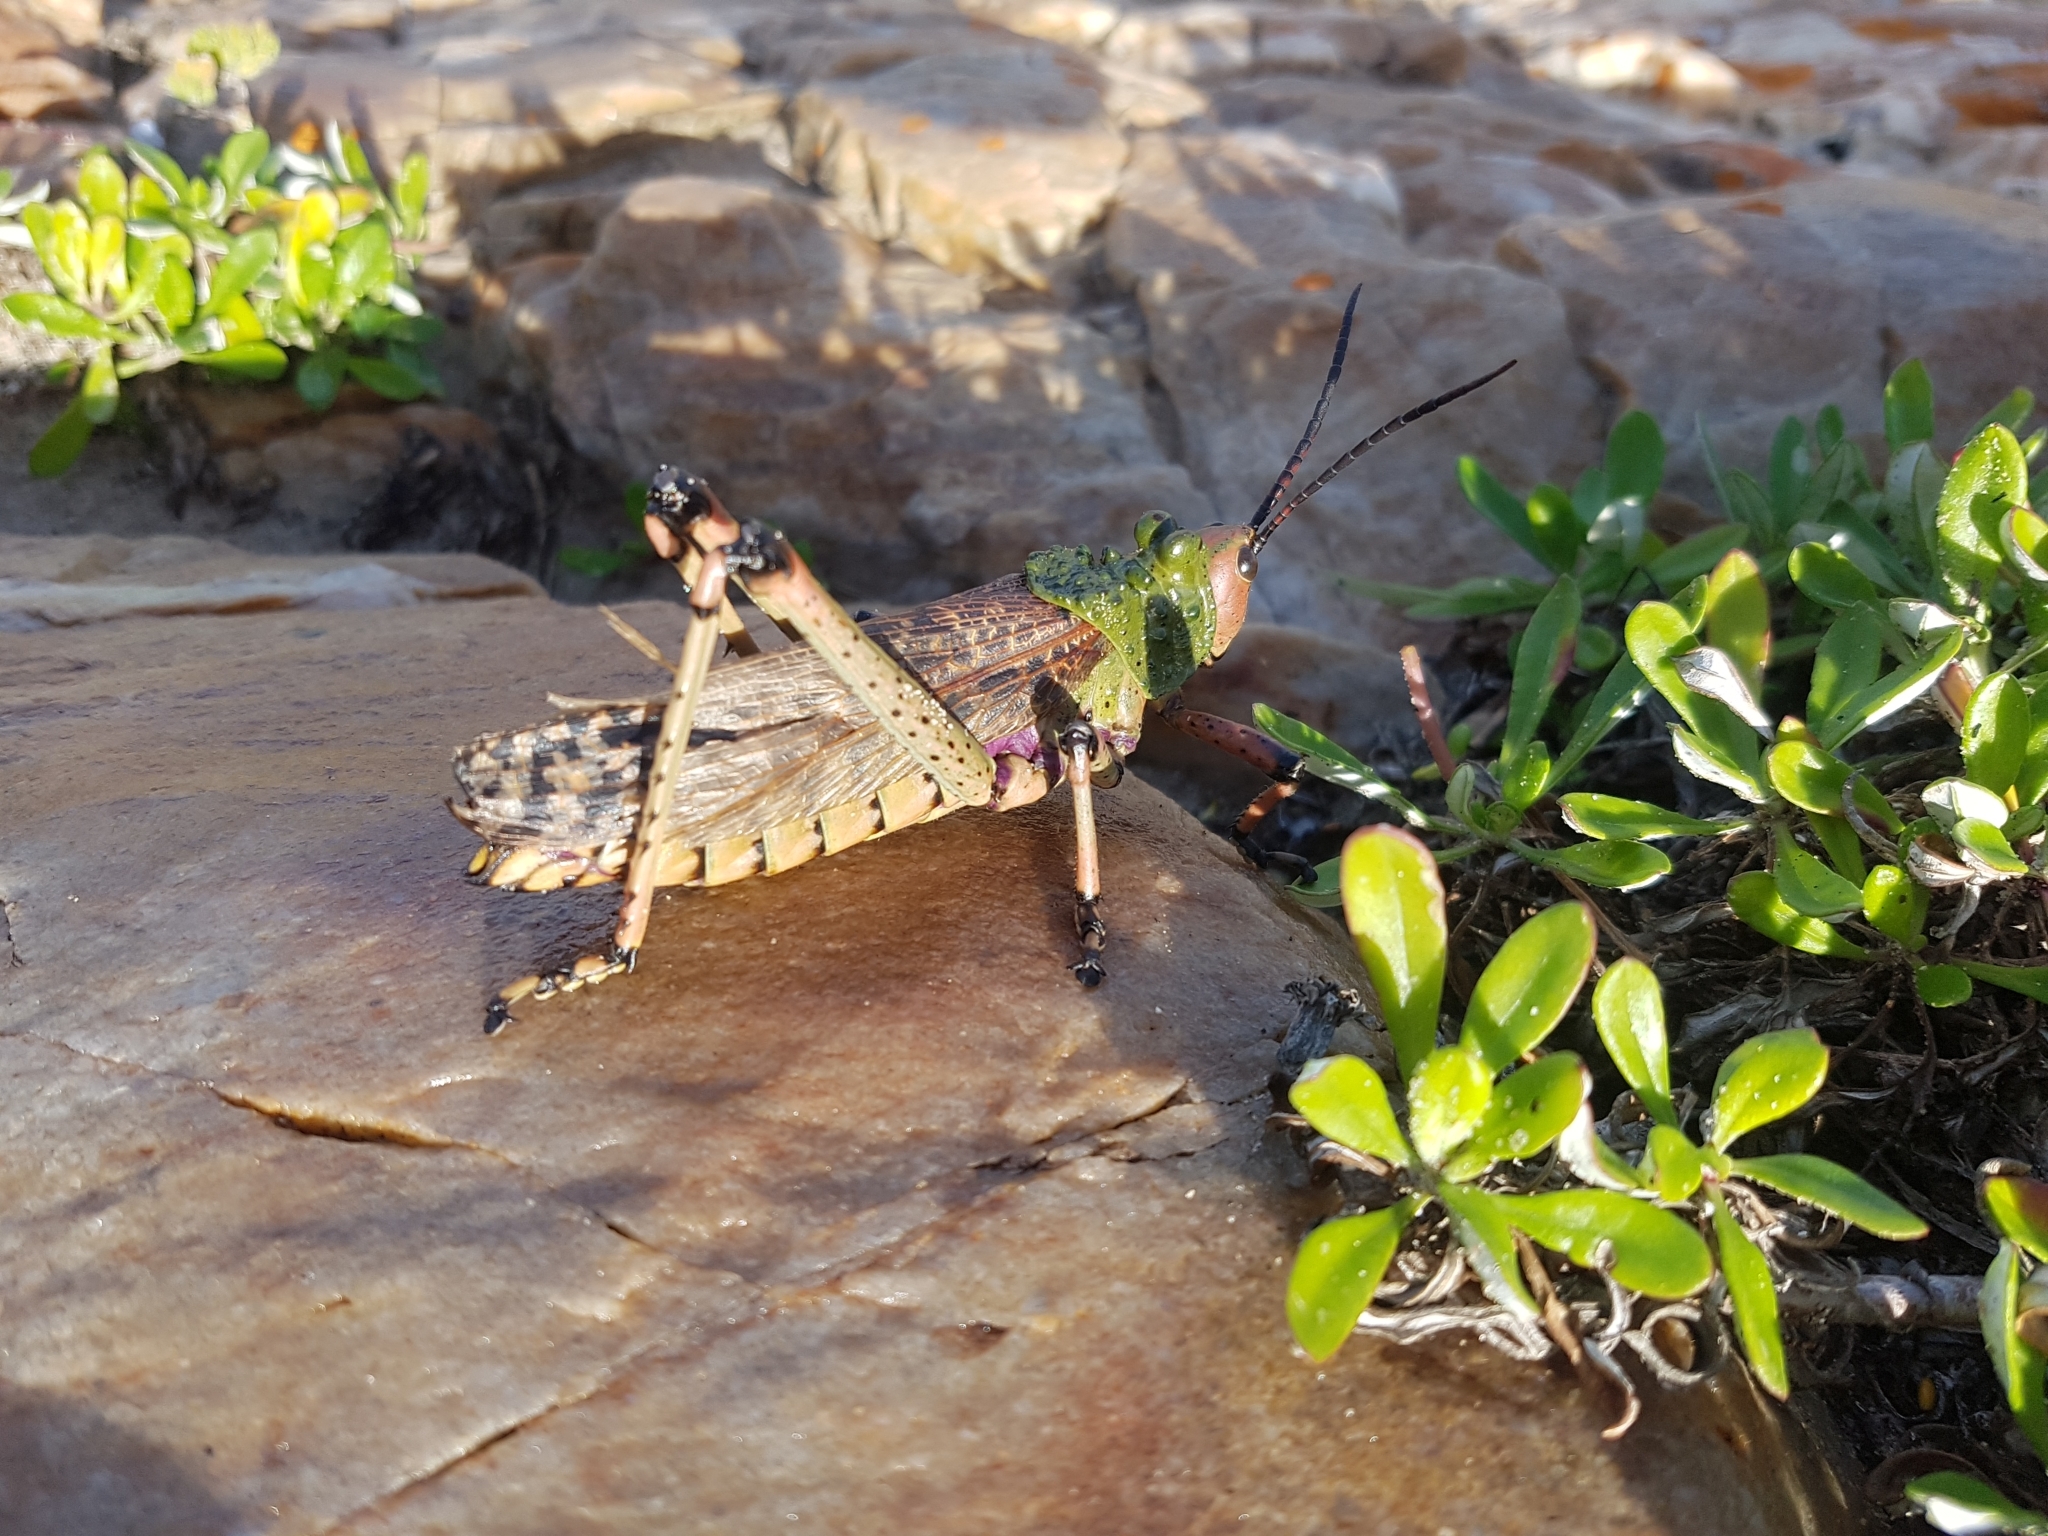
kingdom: Animalia
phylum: Arthropoda
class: Insecta
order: Orthoptera
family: Pyrgomorphidae
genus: Phymateus
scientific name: Phymateus leprosus
